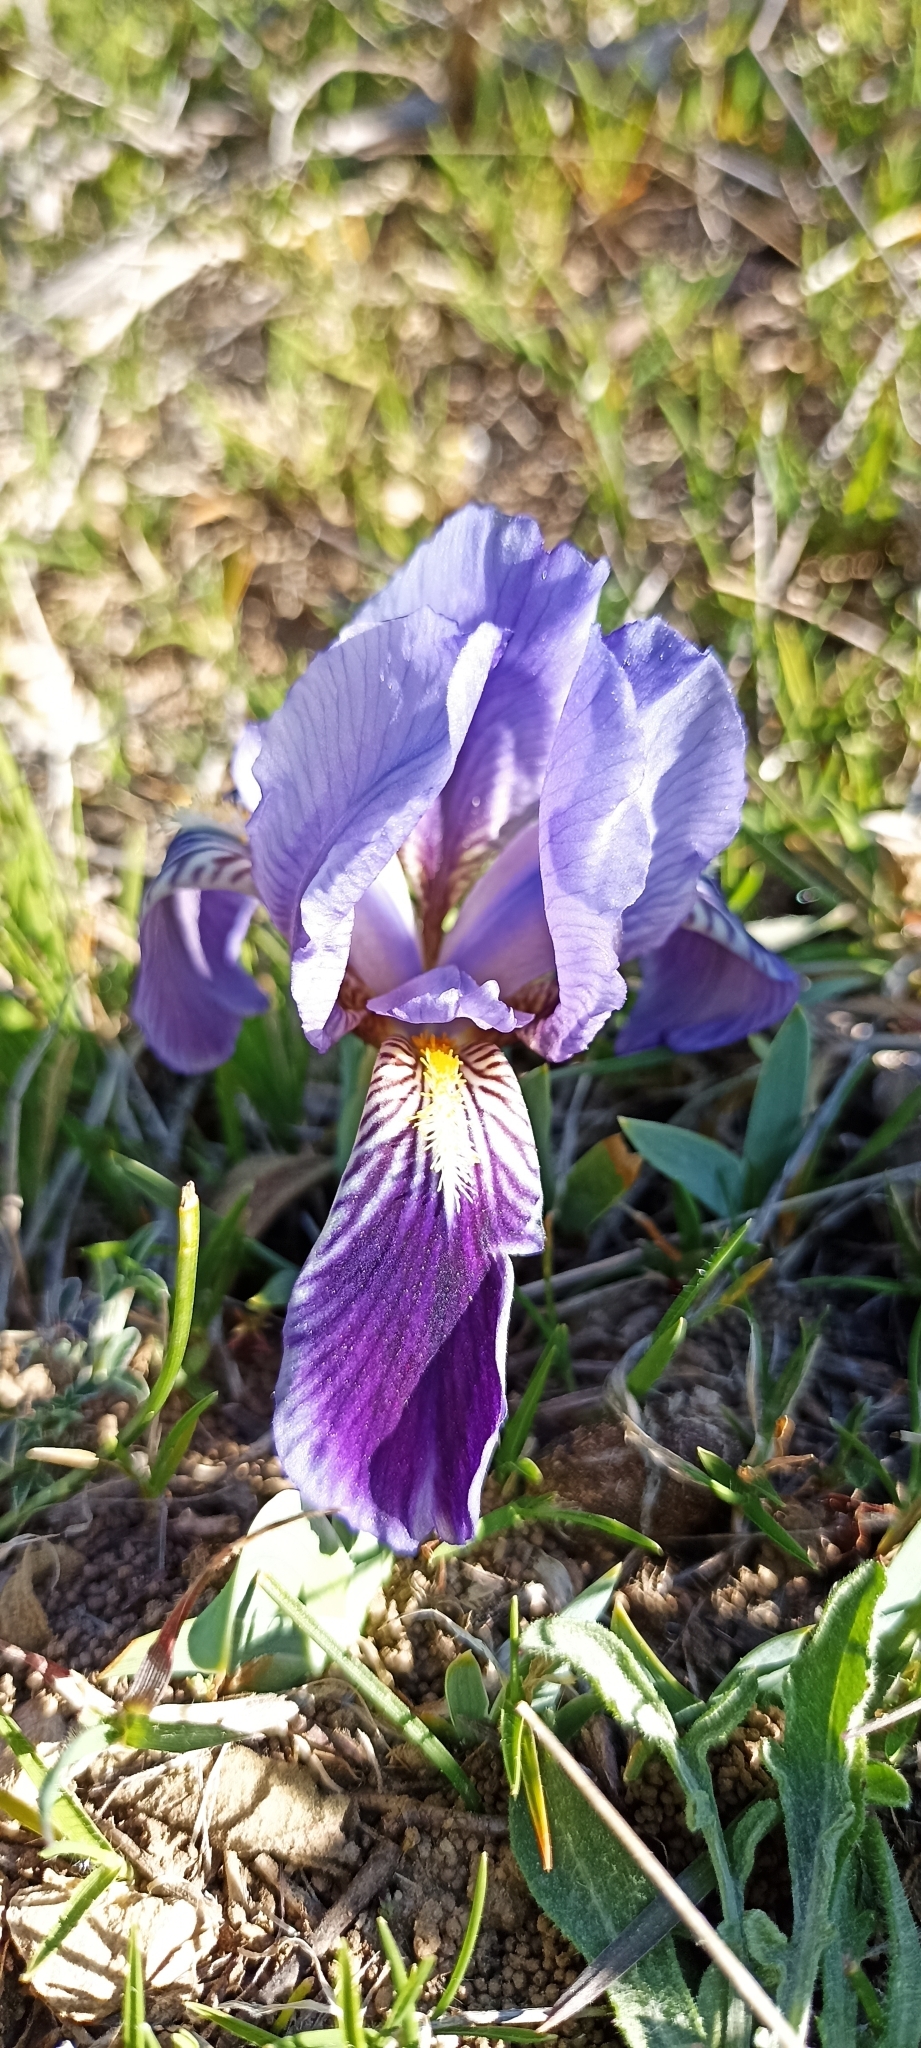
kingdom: Plantae
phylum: Tracheophyta
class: Liliopsida
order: Asparagales
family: Iridaceae
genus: Iris
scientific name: Iris lutescens
